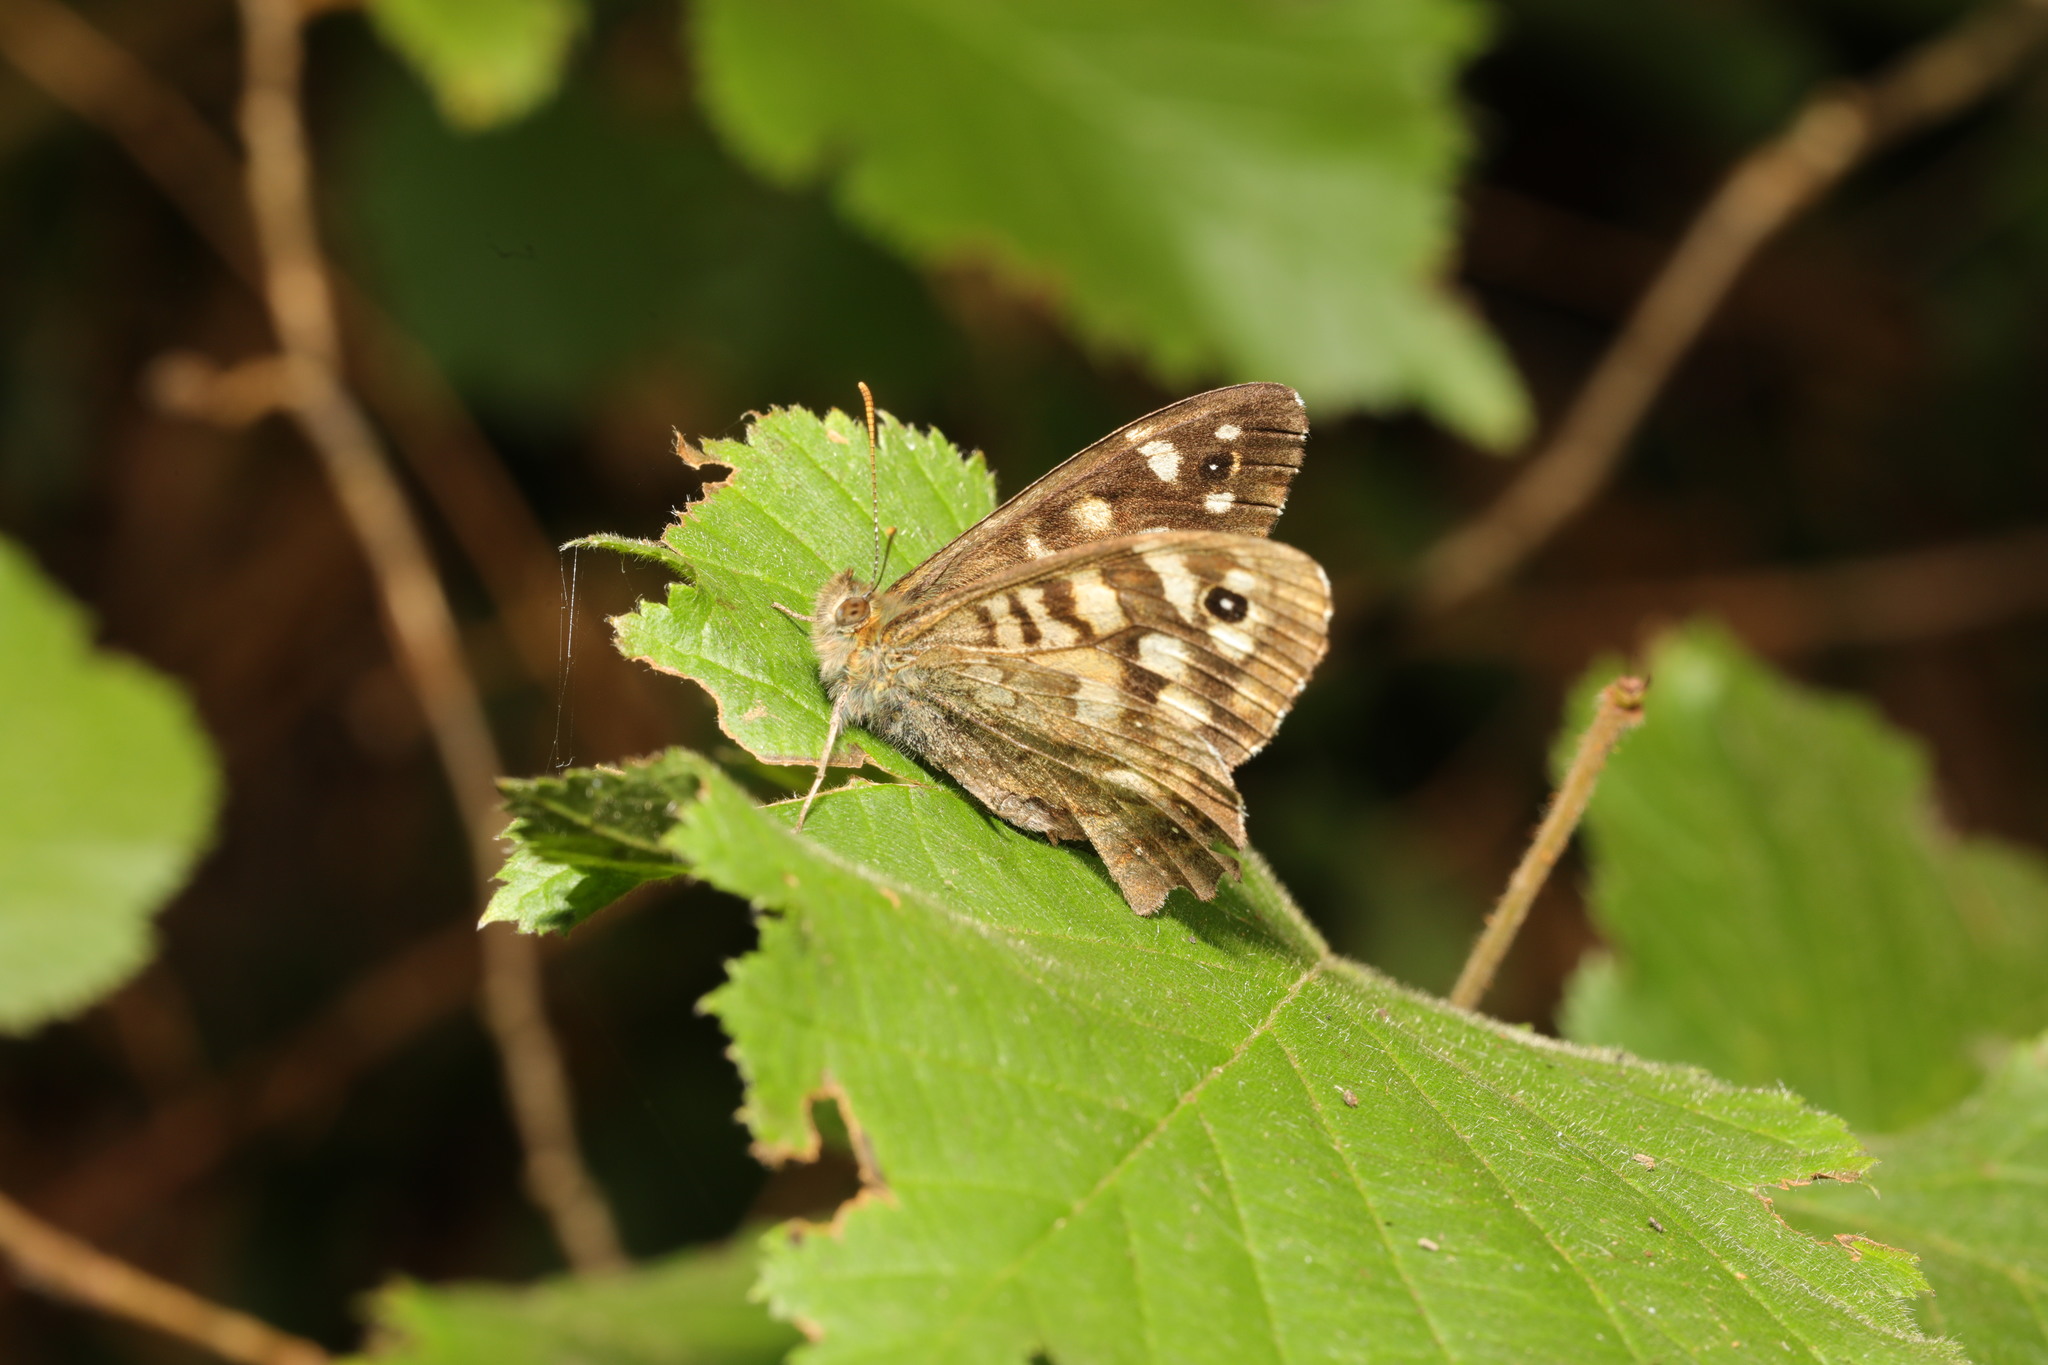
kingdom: Animalia
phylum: Arthropoda
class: Insecta
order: Lepidoptera
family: Nymphalidae
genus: Pararge
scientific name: Pararge aegeria
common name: Speckled wood
